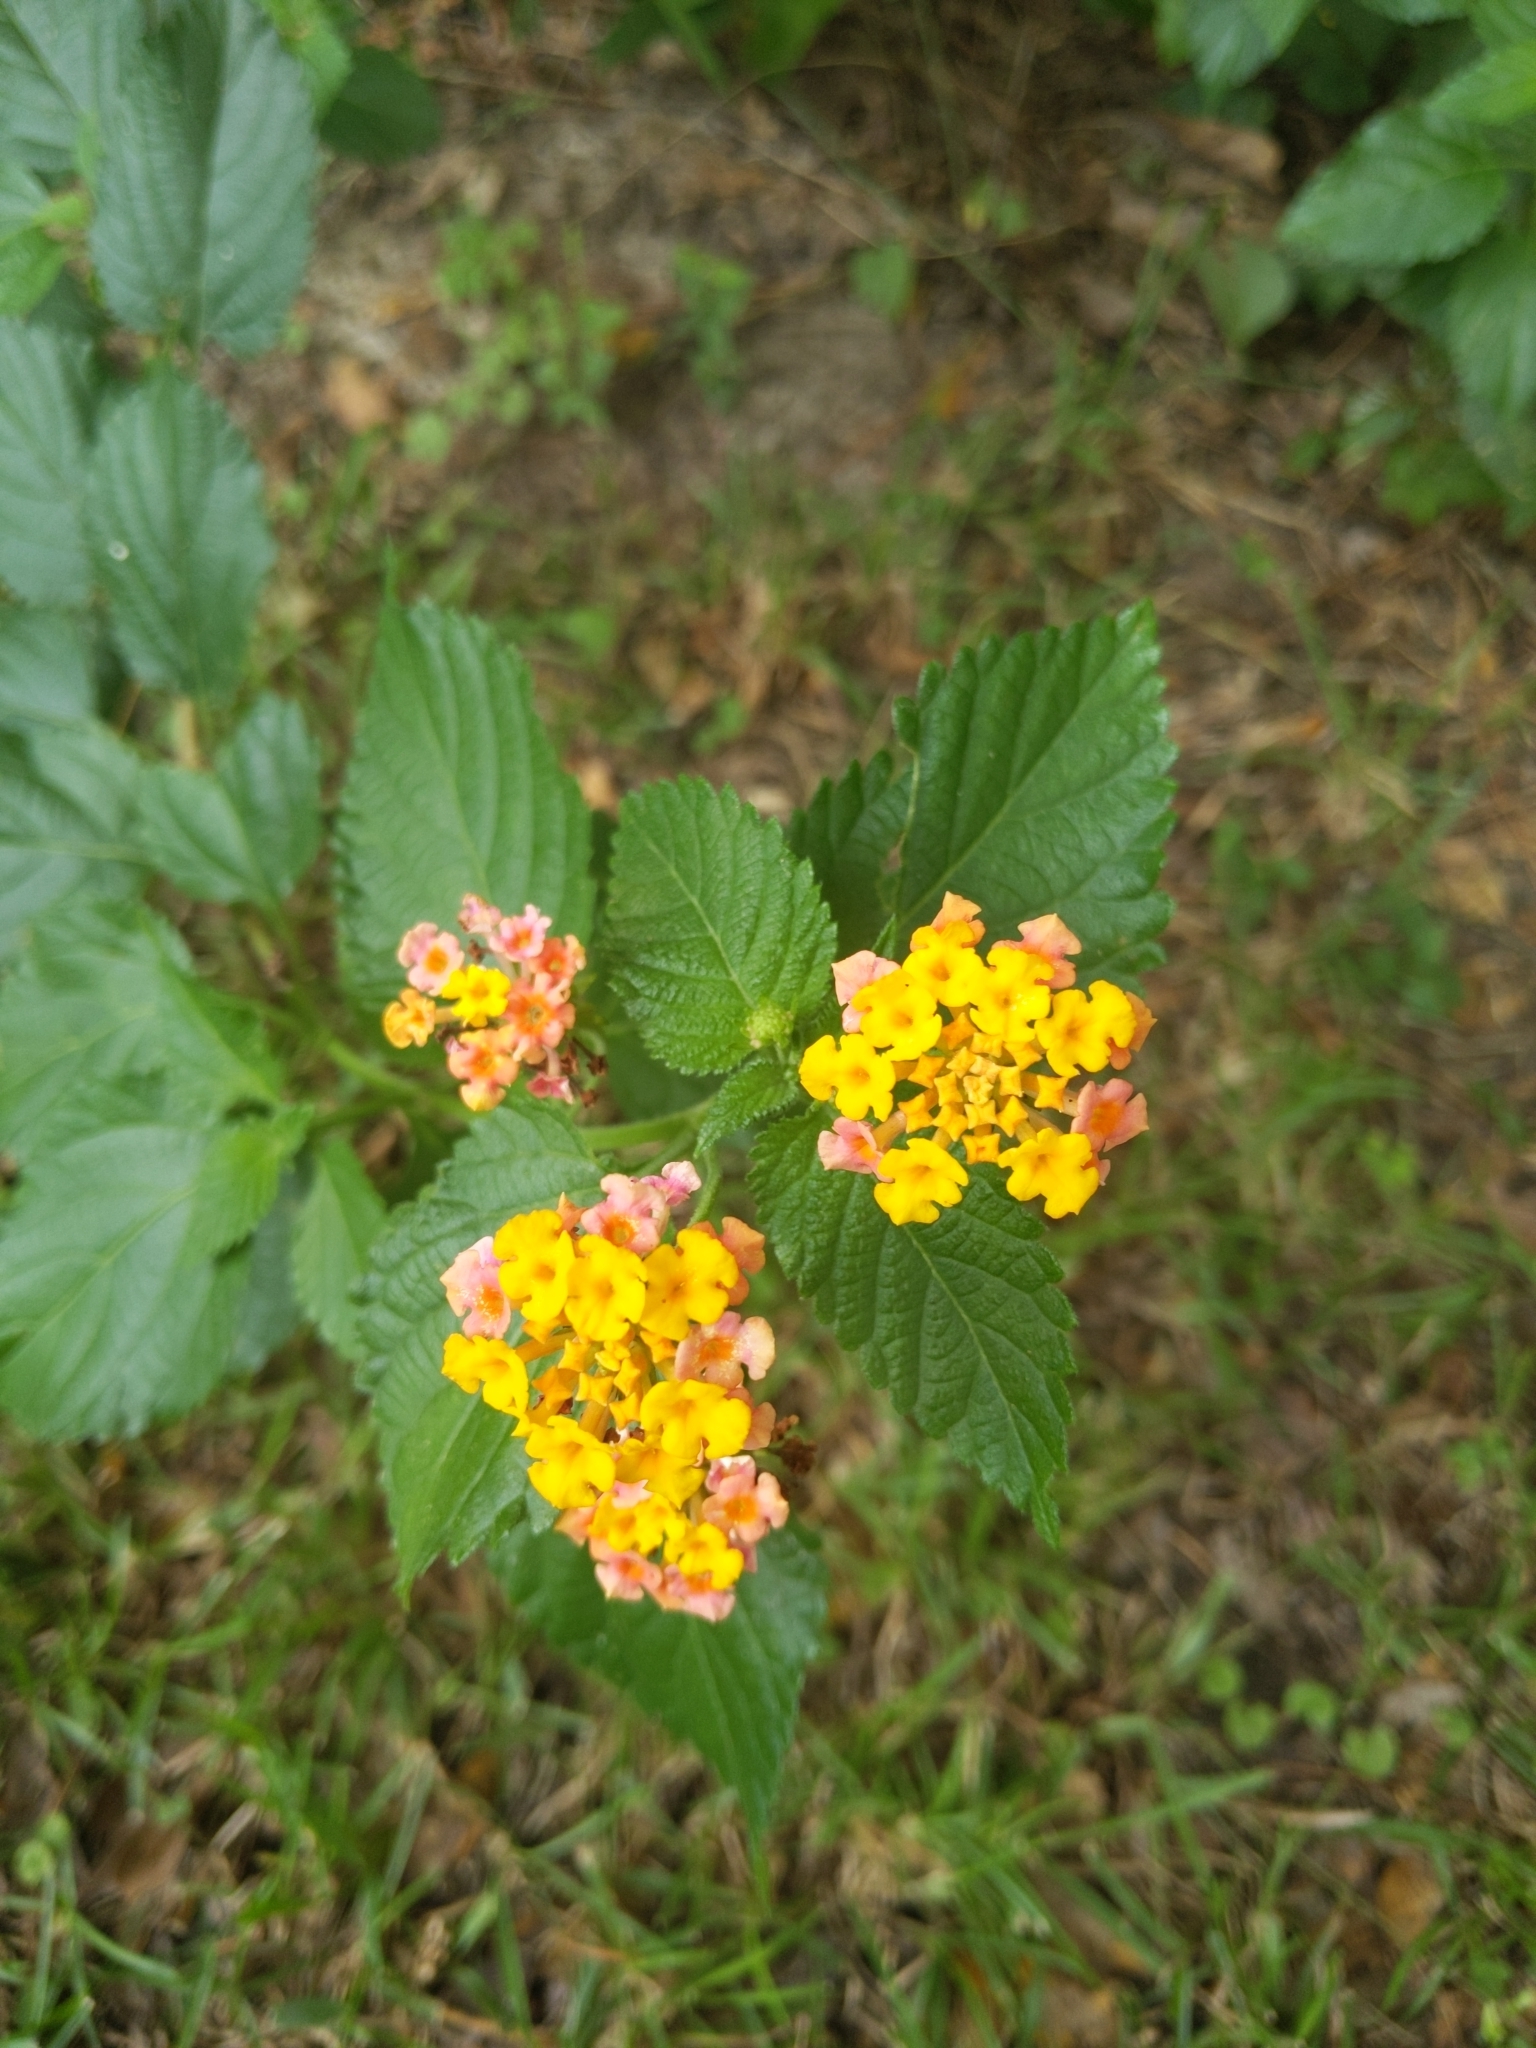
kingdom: Plantae
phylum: Tracheophyta
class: Magnoliopsida
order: Lamiales
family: Verbenaceae
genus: Lantana
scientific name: Lantana camara
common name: Lantana
